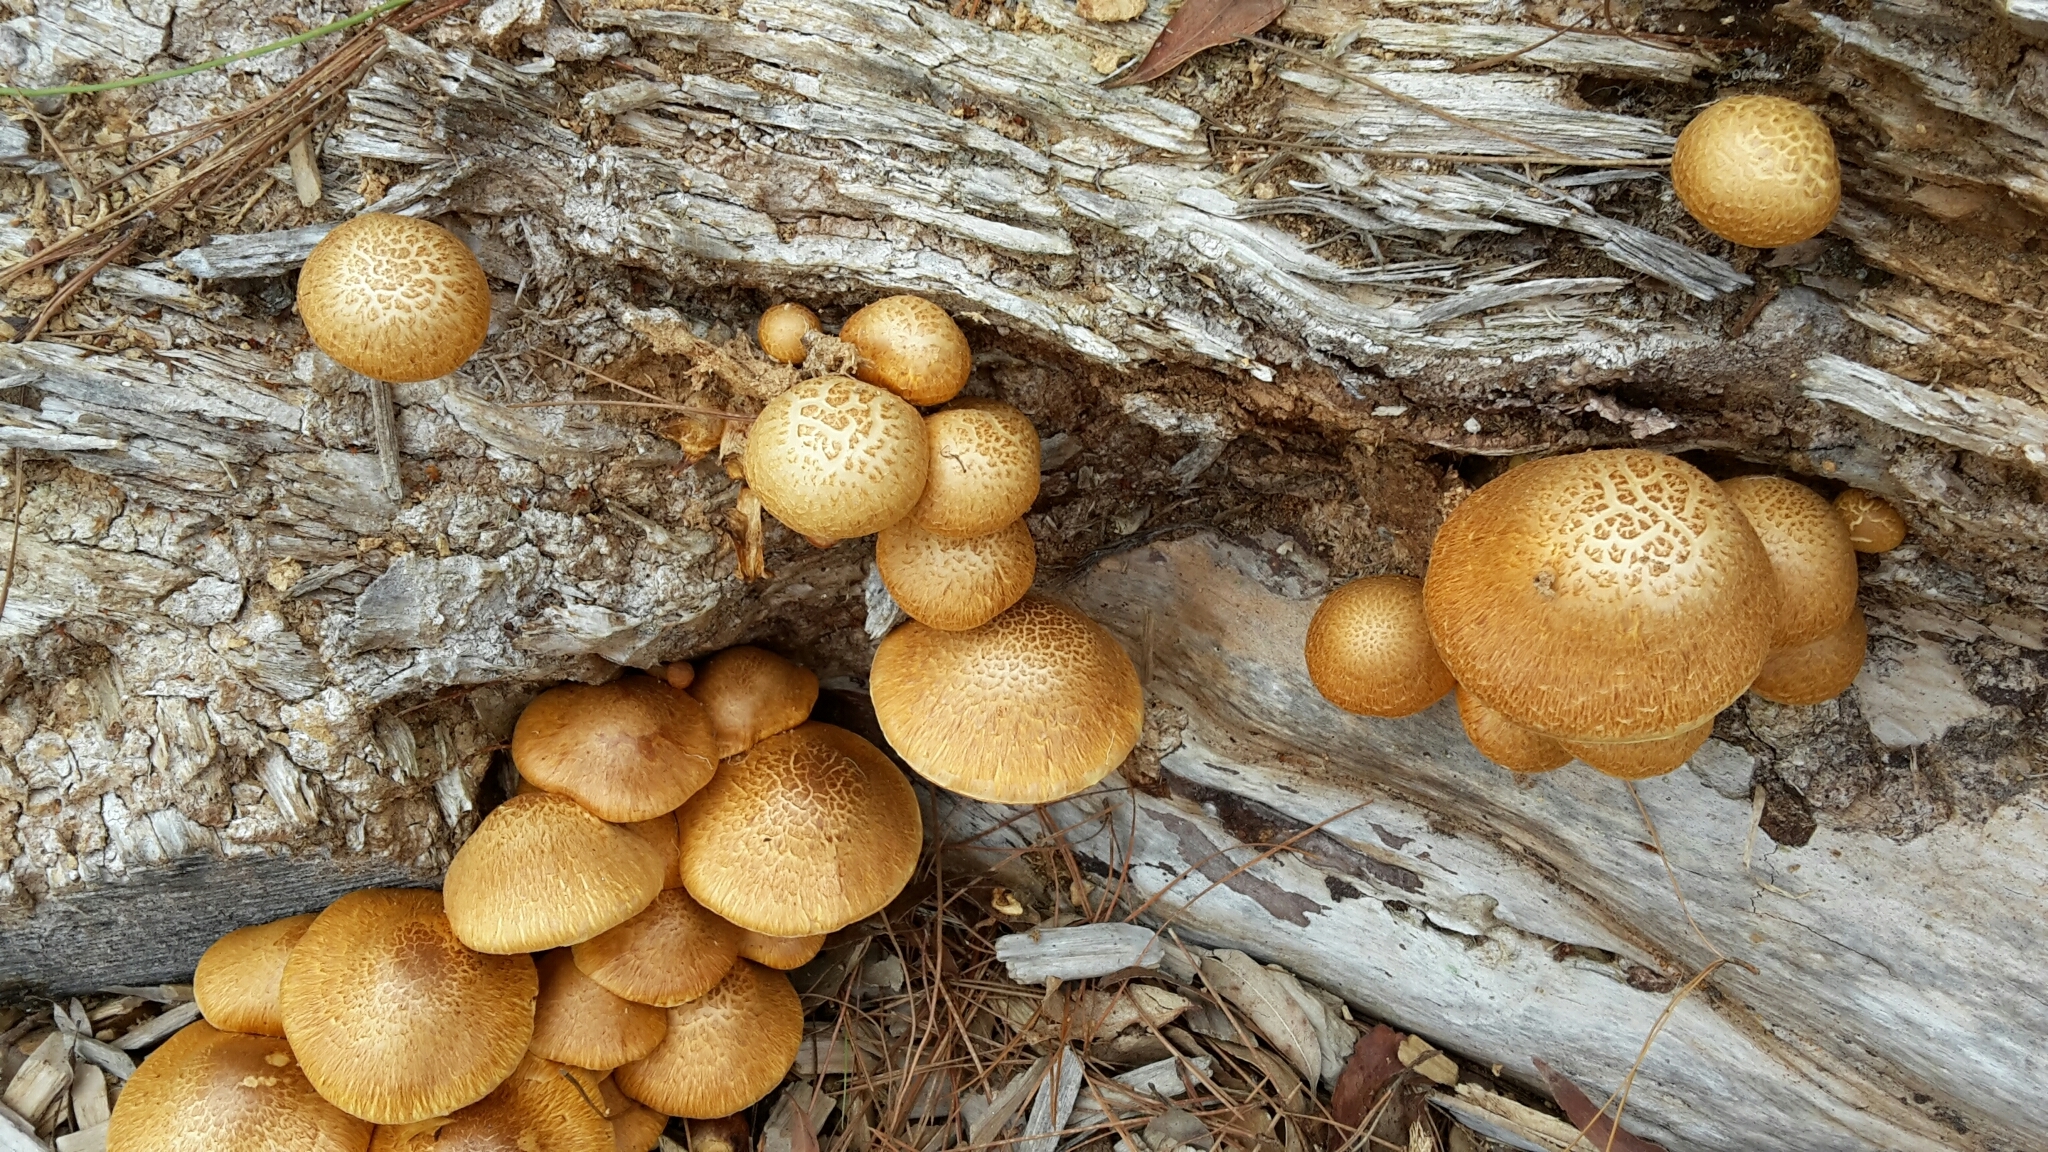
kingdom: Fungi
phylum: Basidiomycota
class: Agaricomycetes
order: Agaricales
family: Hymenogastraceae
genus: Gymnopilus
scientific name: Gymnopilus junonius
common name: Spectacular rustgill
